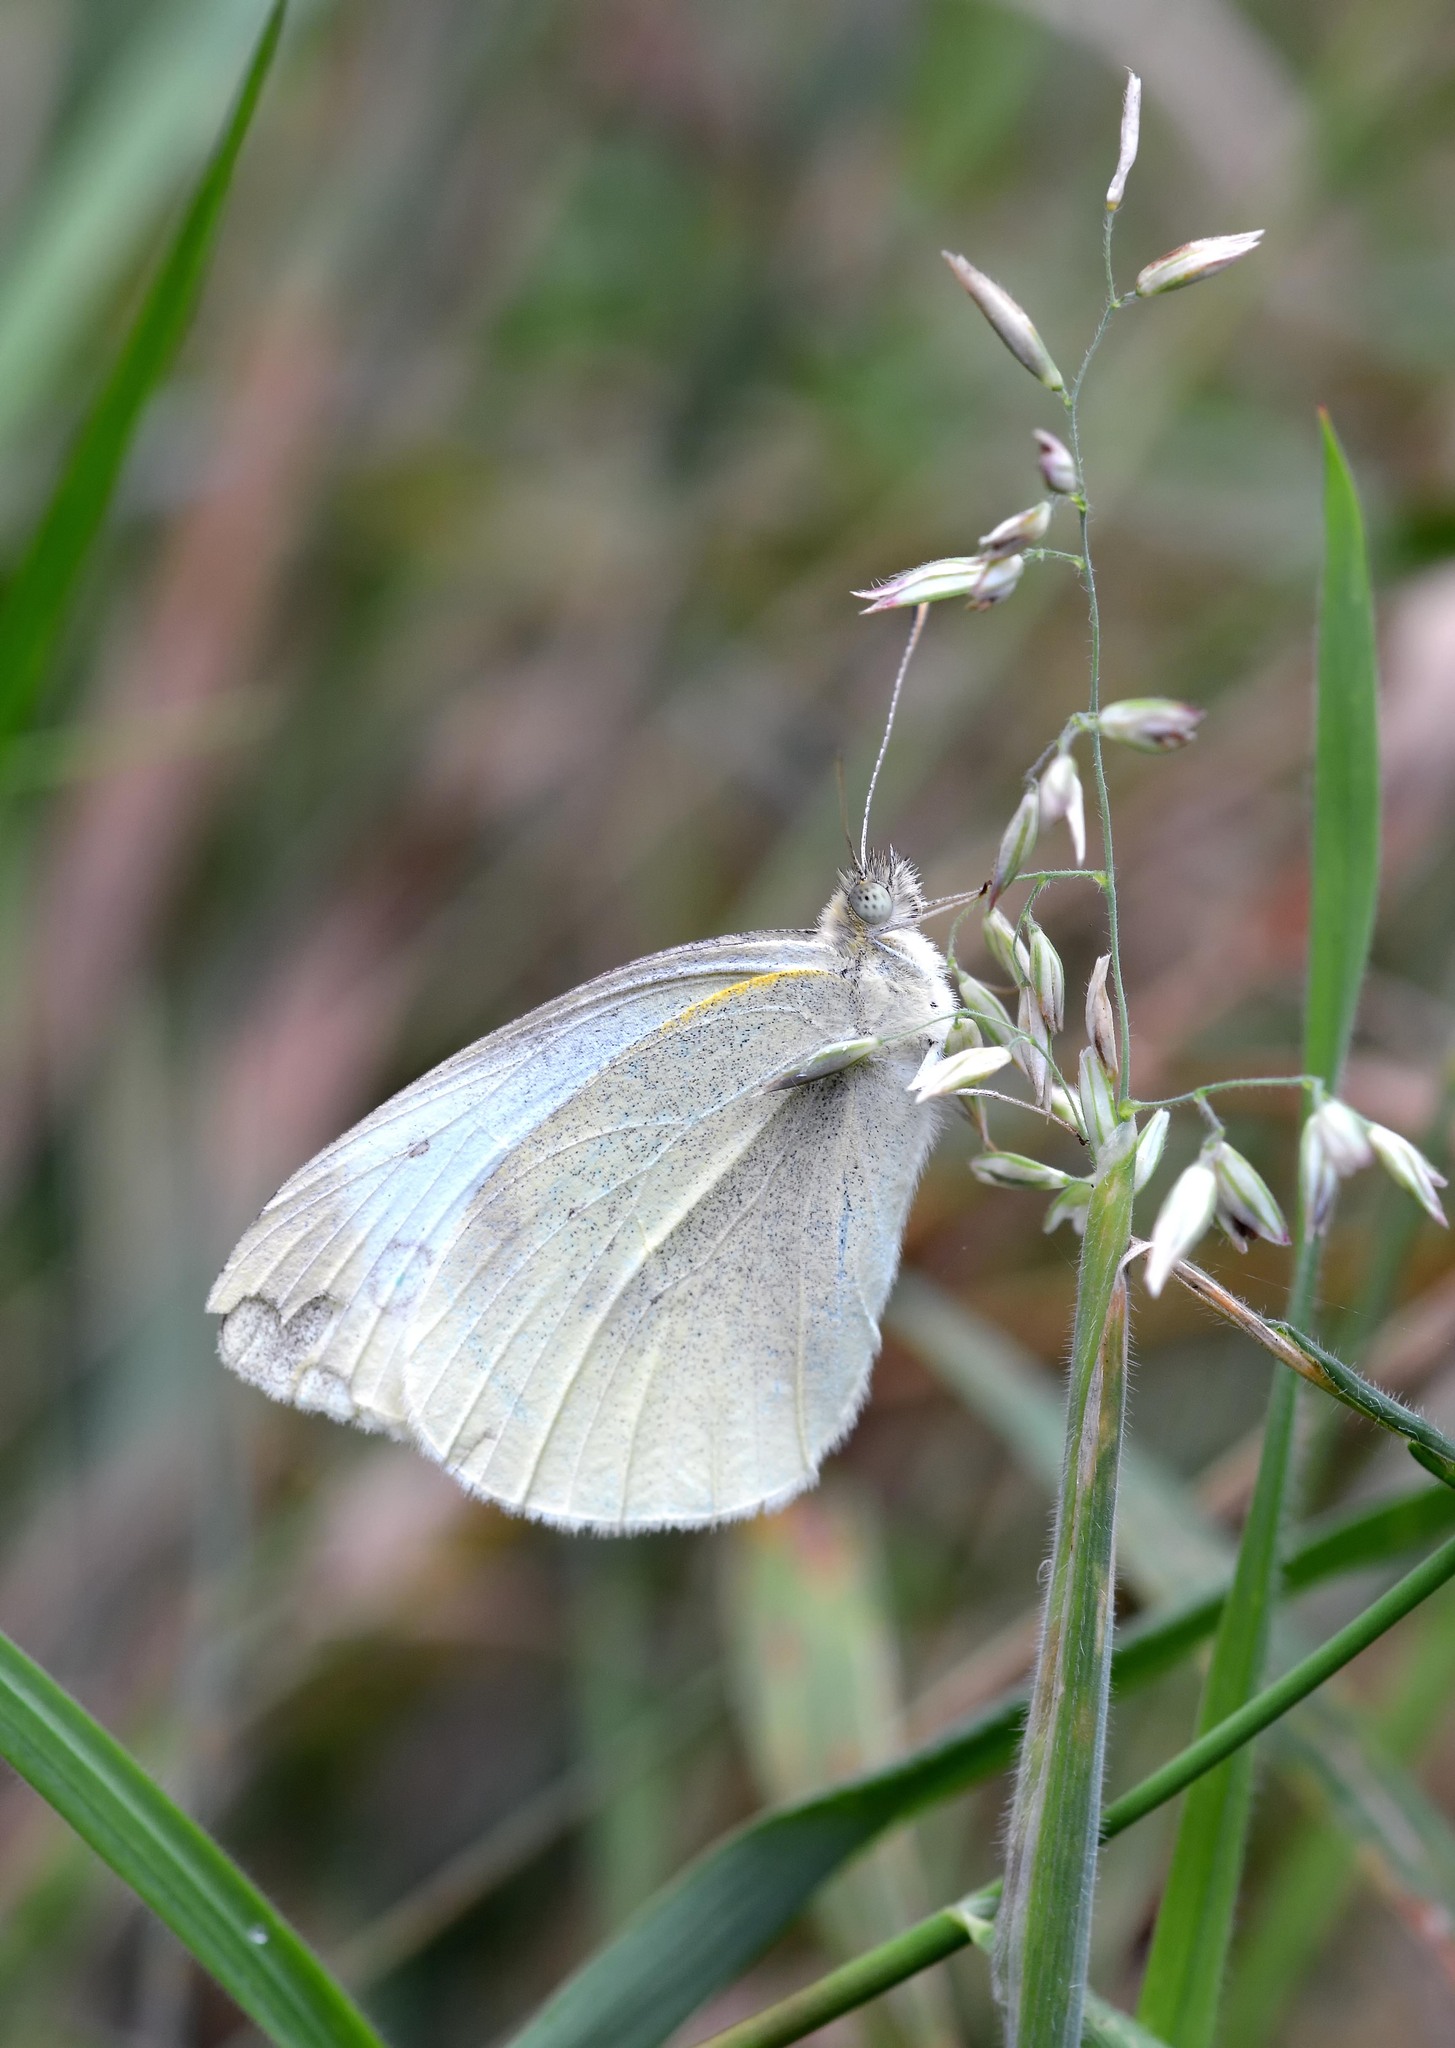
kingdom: Animalia
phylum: Arthropoda
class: Insecta
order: Lepidoptera
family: Pieridae
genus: Pieris
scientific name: Pieris rapae
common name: Small white
